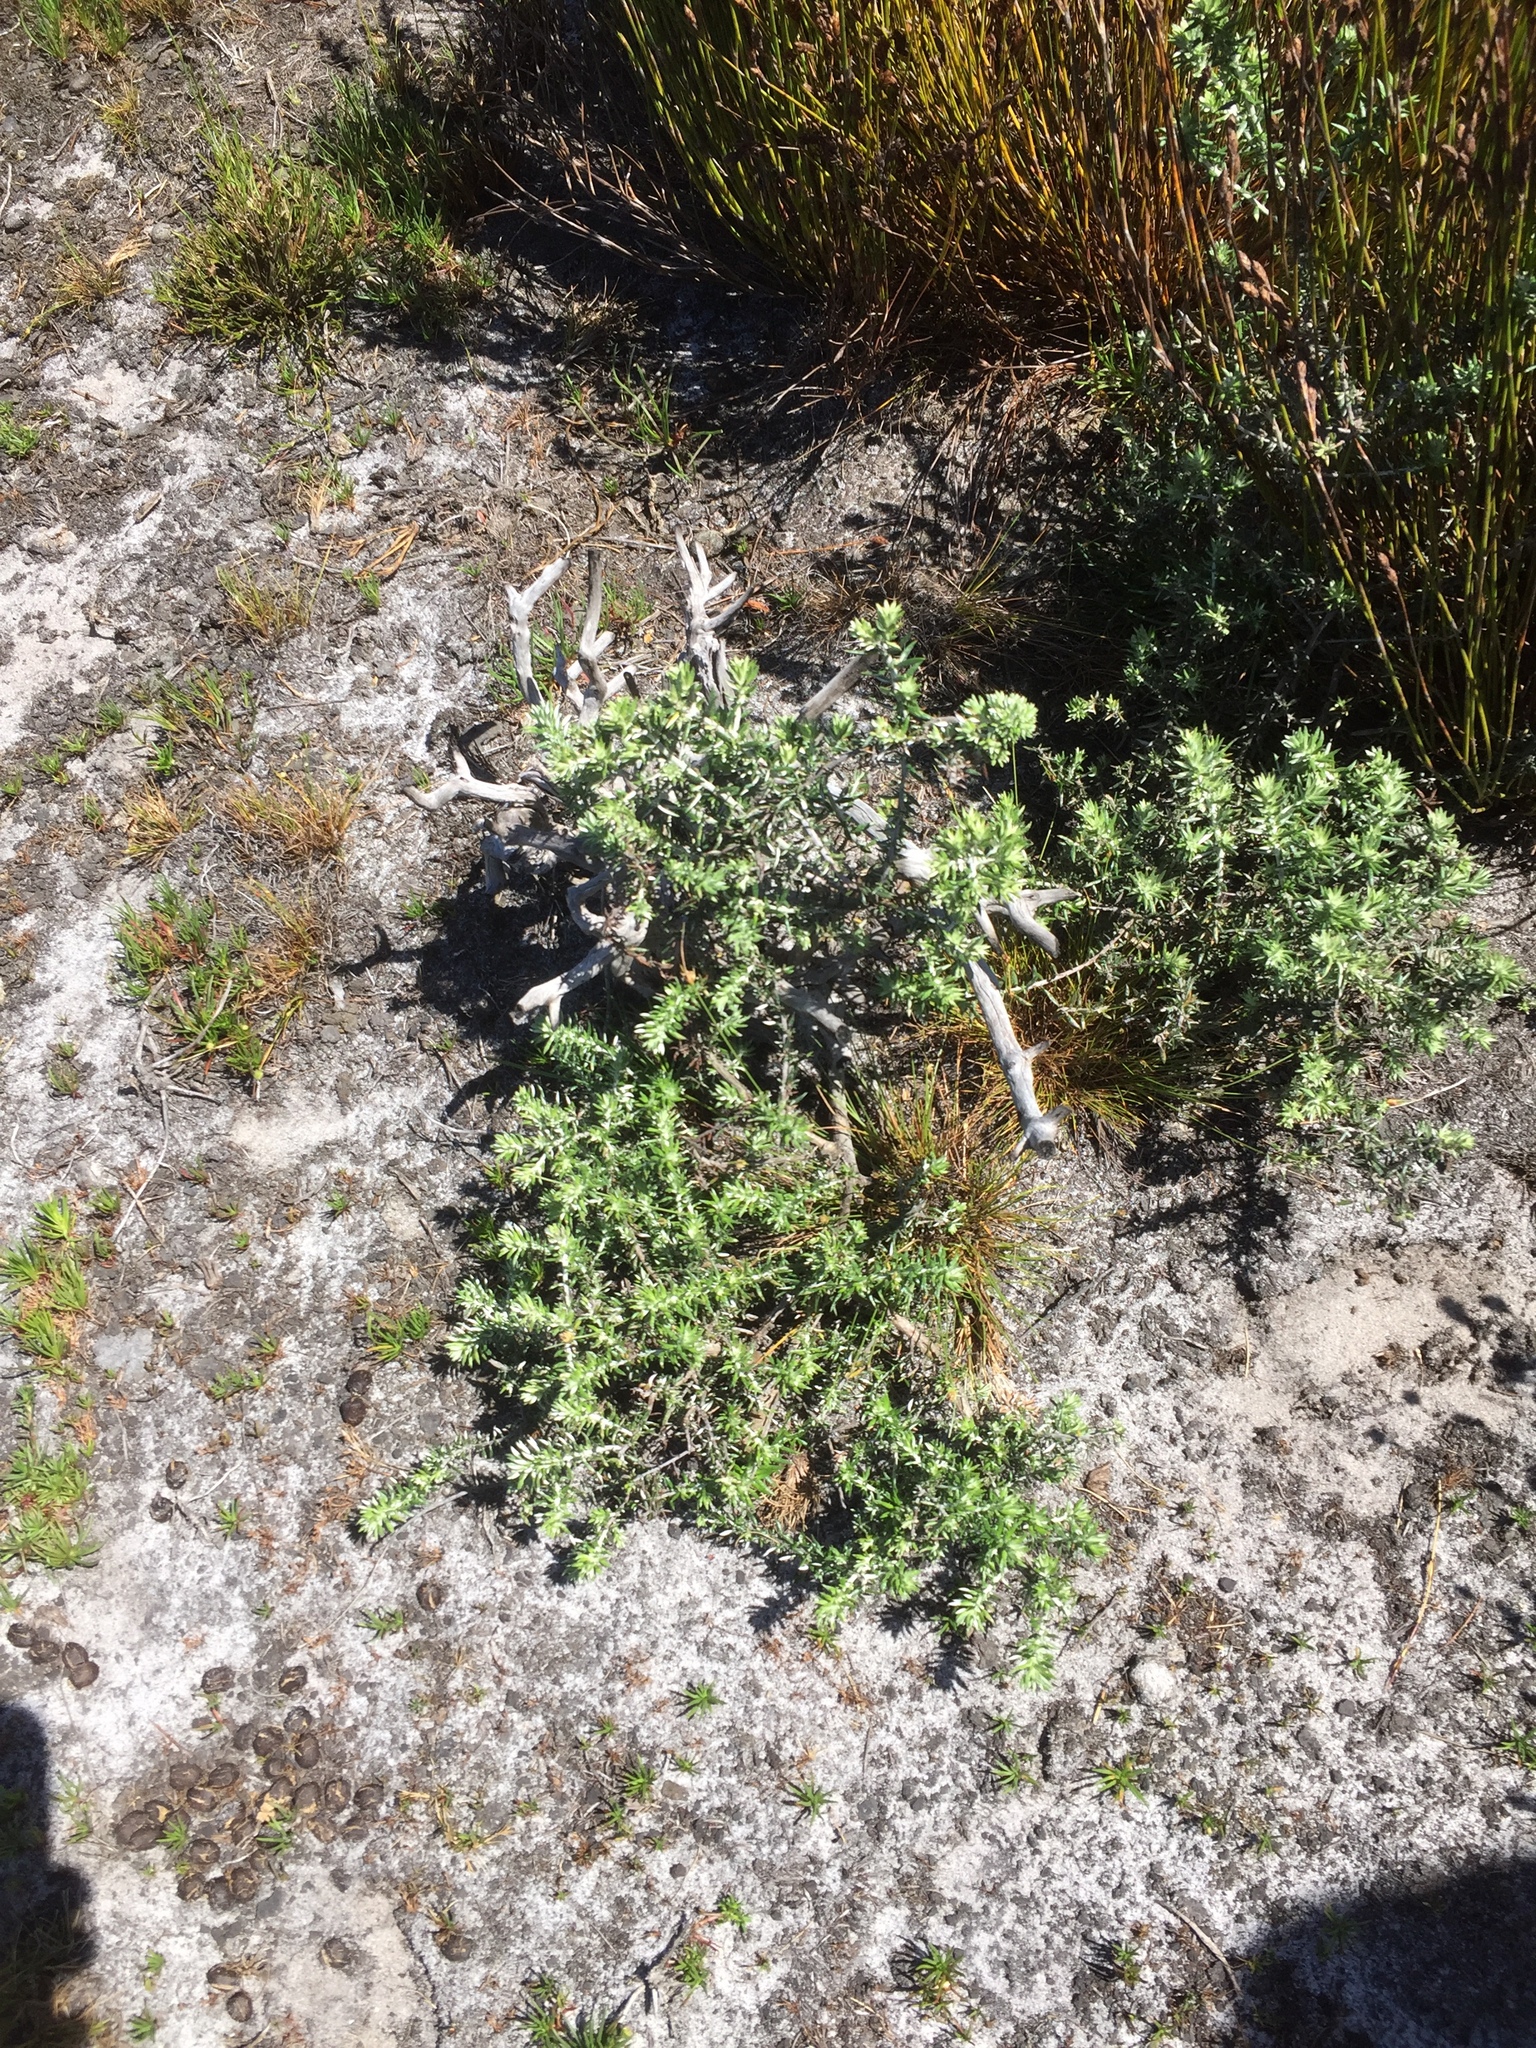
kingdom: Plantae
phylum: Tracheophyta
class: Magnoliopsida
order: Asterales
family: Asteraceae
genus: Metalasia
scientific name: Metalasia muricata
